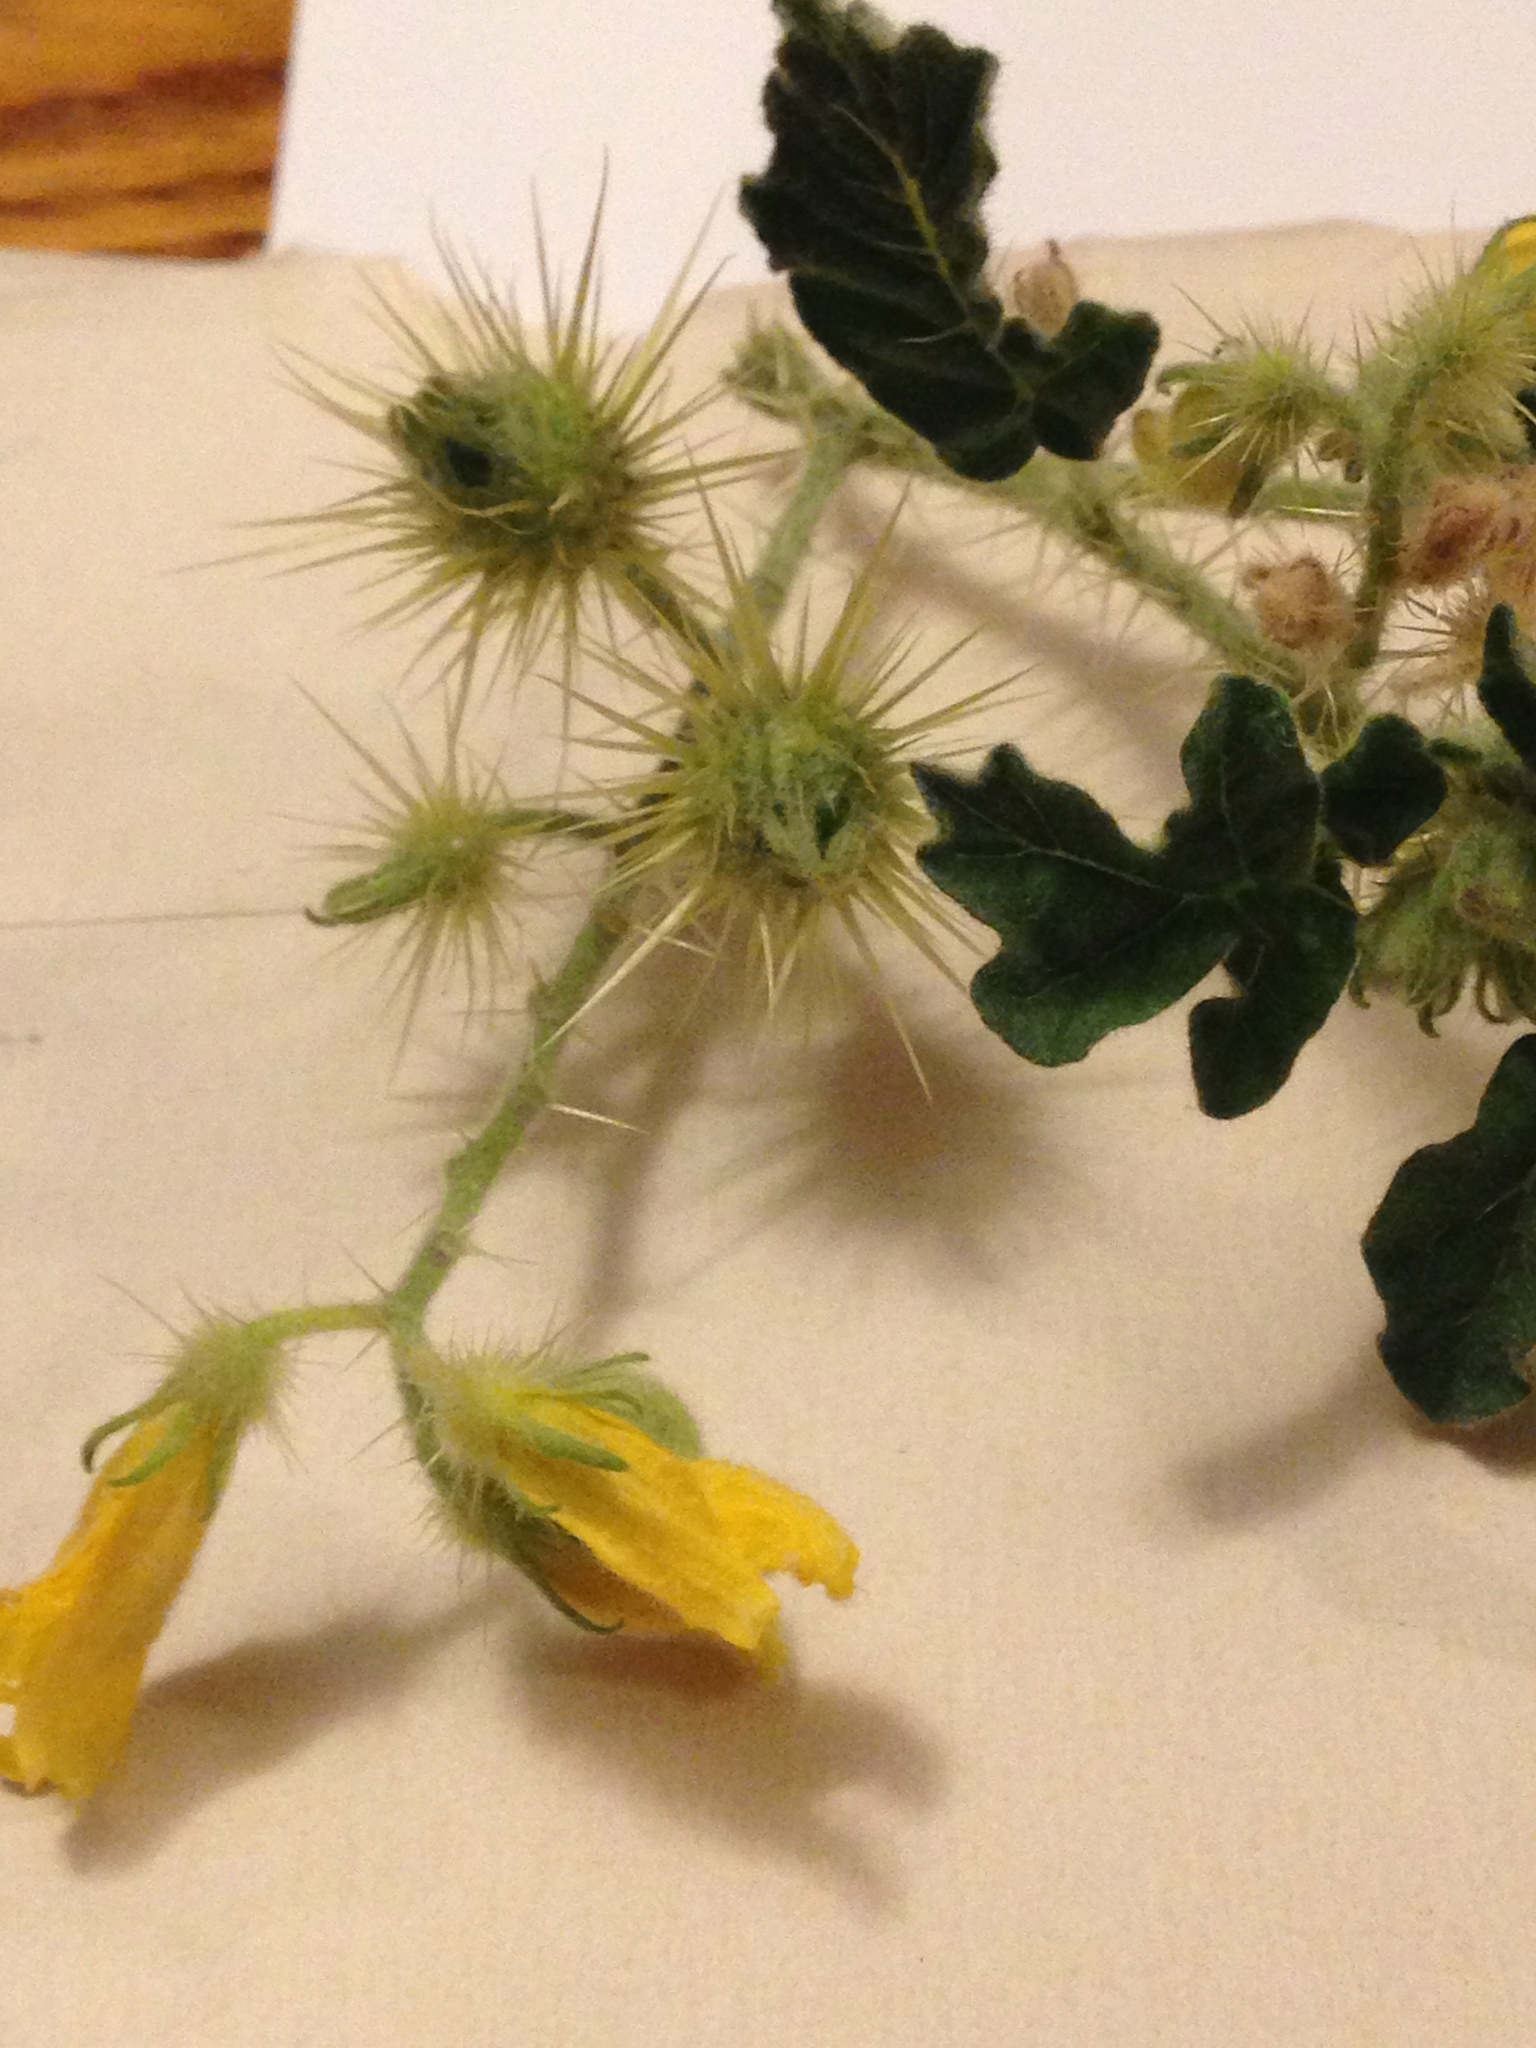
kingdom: Plantae
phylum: Tracheophyta
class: Magnoliopsida
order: Solanales
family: Solanaceae
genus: Solanum
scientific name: Solanum angustifolium
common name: Buffalobur nightshade
